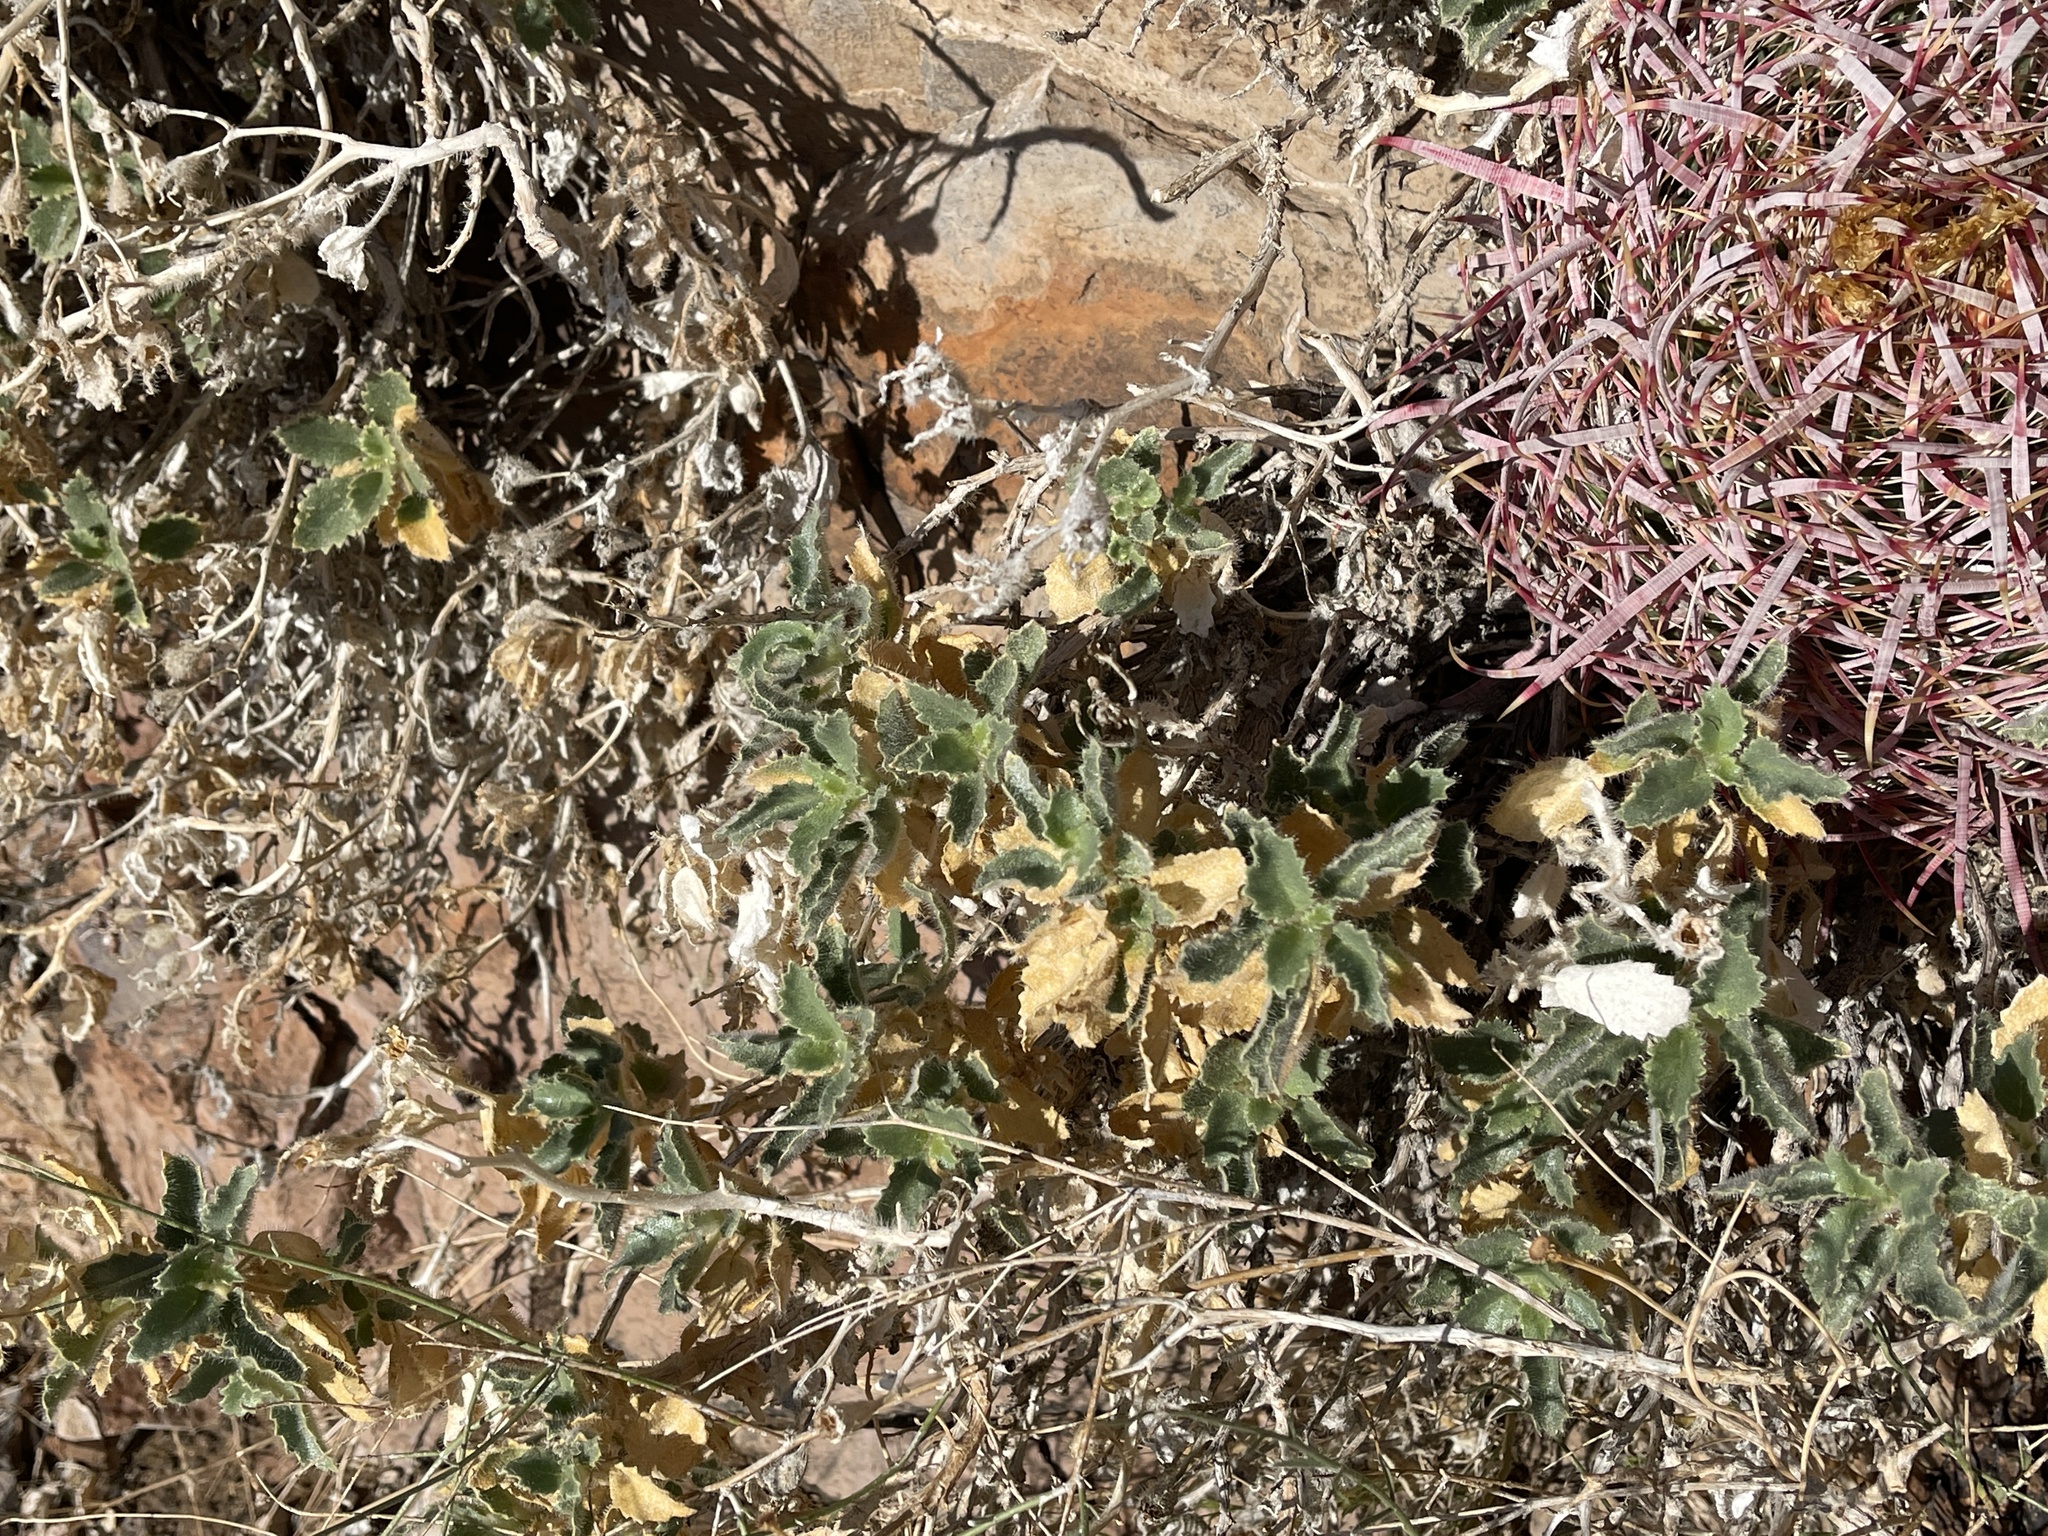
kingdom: Plantae
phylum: Tracheophyta
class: Magnoliopsida
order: Cornales
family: Loasaceae
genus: Eucnide
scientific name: Eucnide urens
